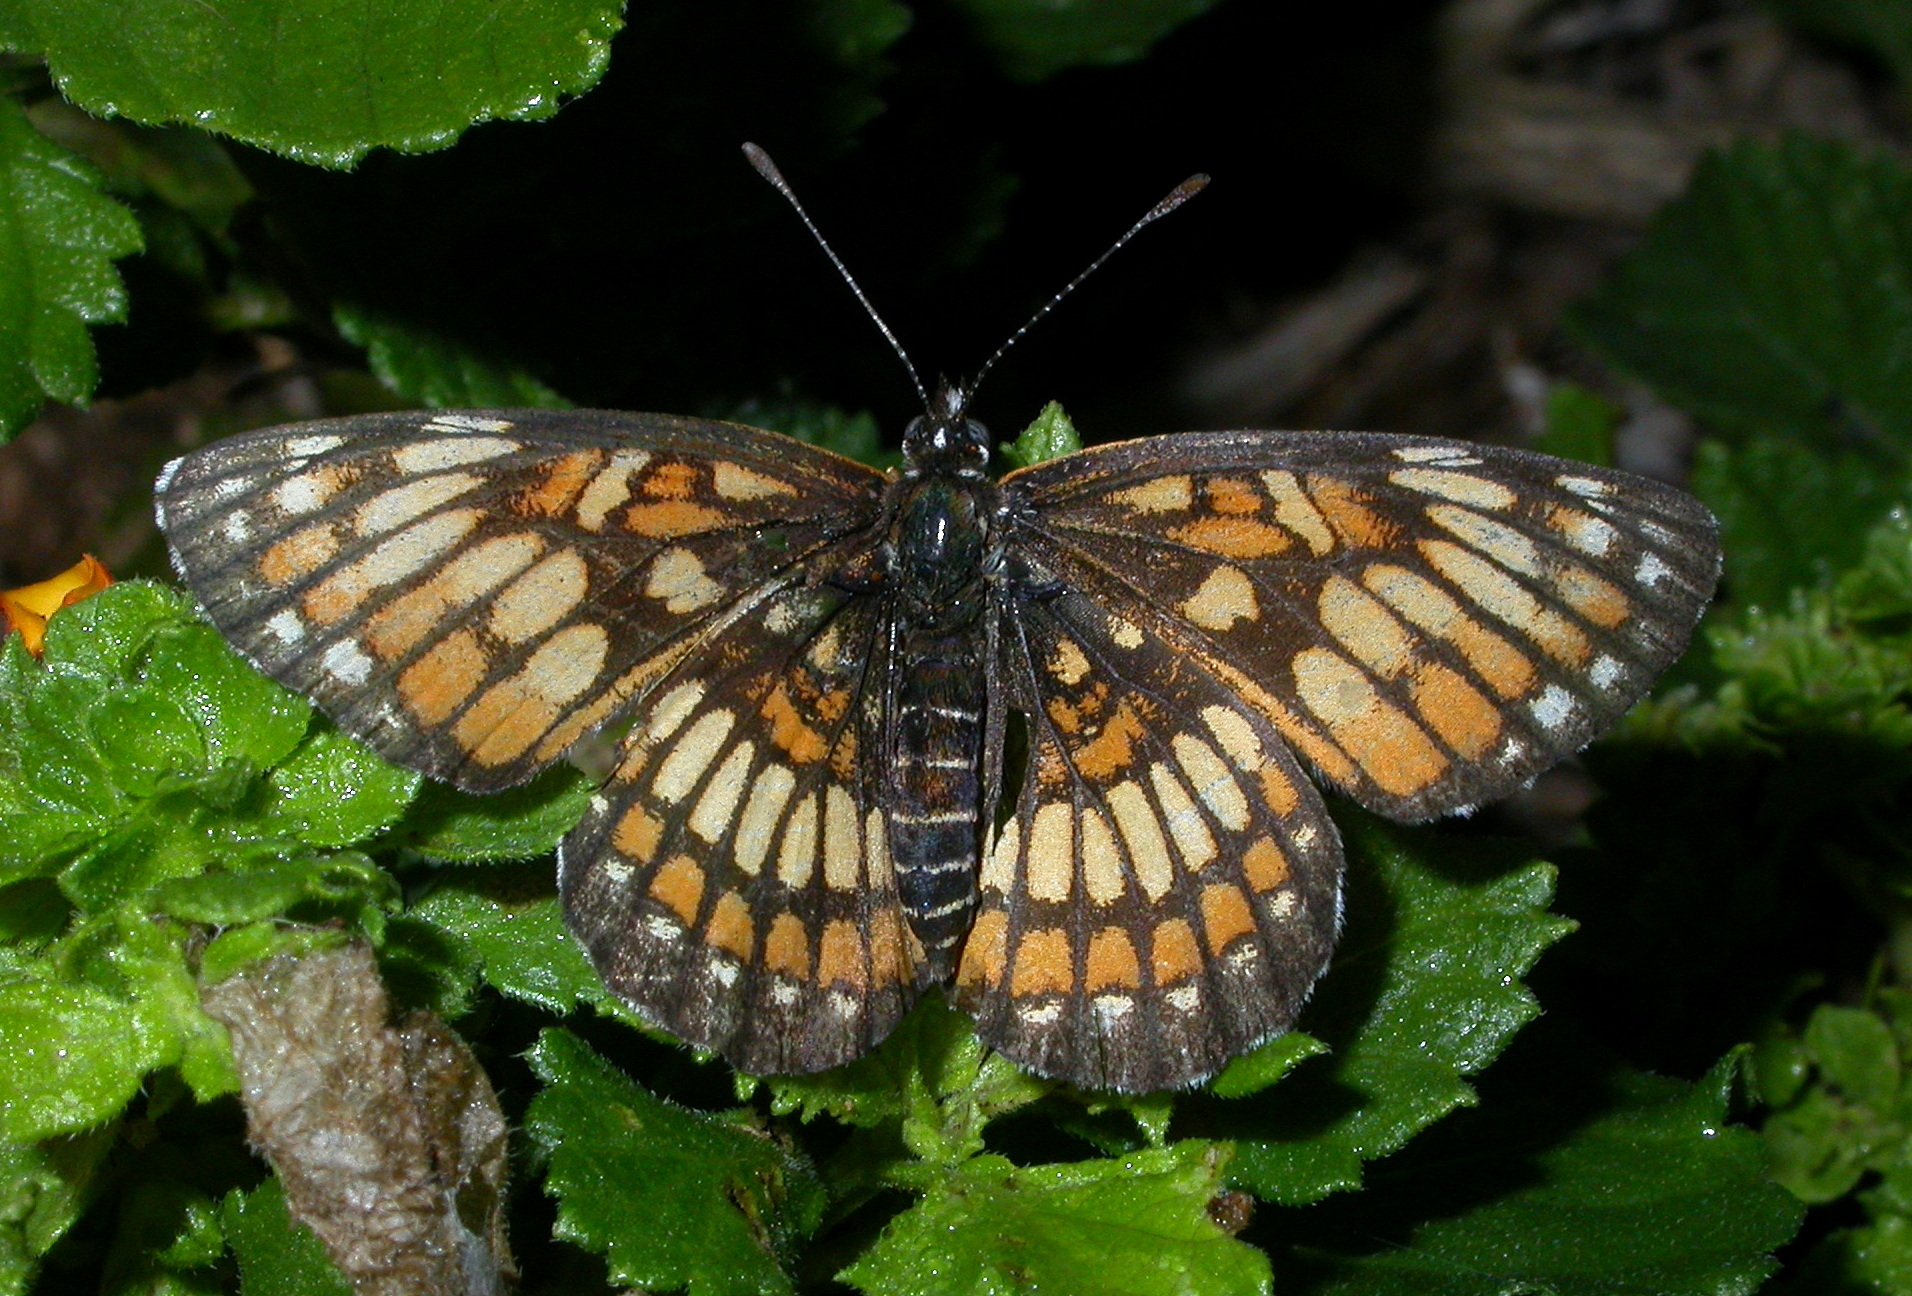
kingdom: Animalia
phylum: Arthropoda
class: Insecta
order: Lepidoptera
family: Nymphalidae
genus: Thessalia
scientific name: Thessalia theona
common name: Nymphalid moth
